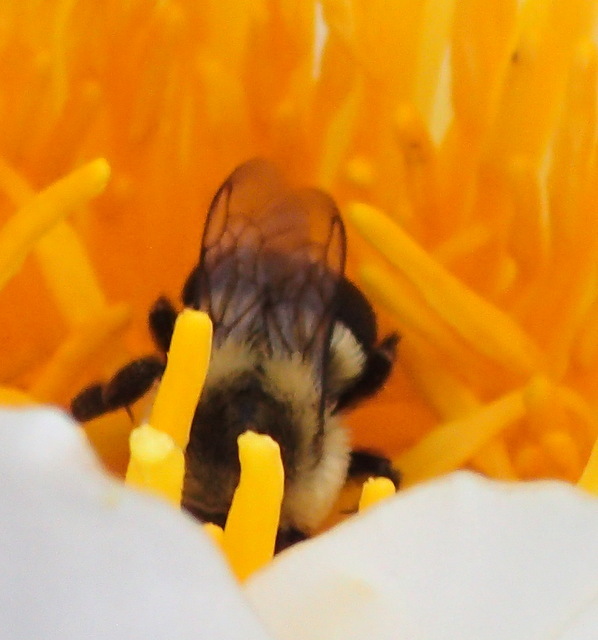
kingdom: Animalia
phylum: Arthropoda
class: Insecta
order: Hymenoptera
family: Apidae
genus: Bombus
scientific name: Bombus impatiens
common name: Common eastern bumble bee
